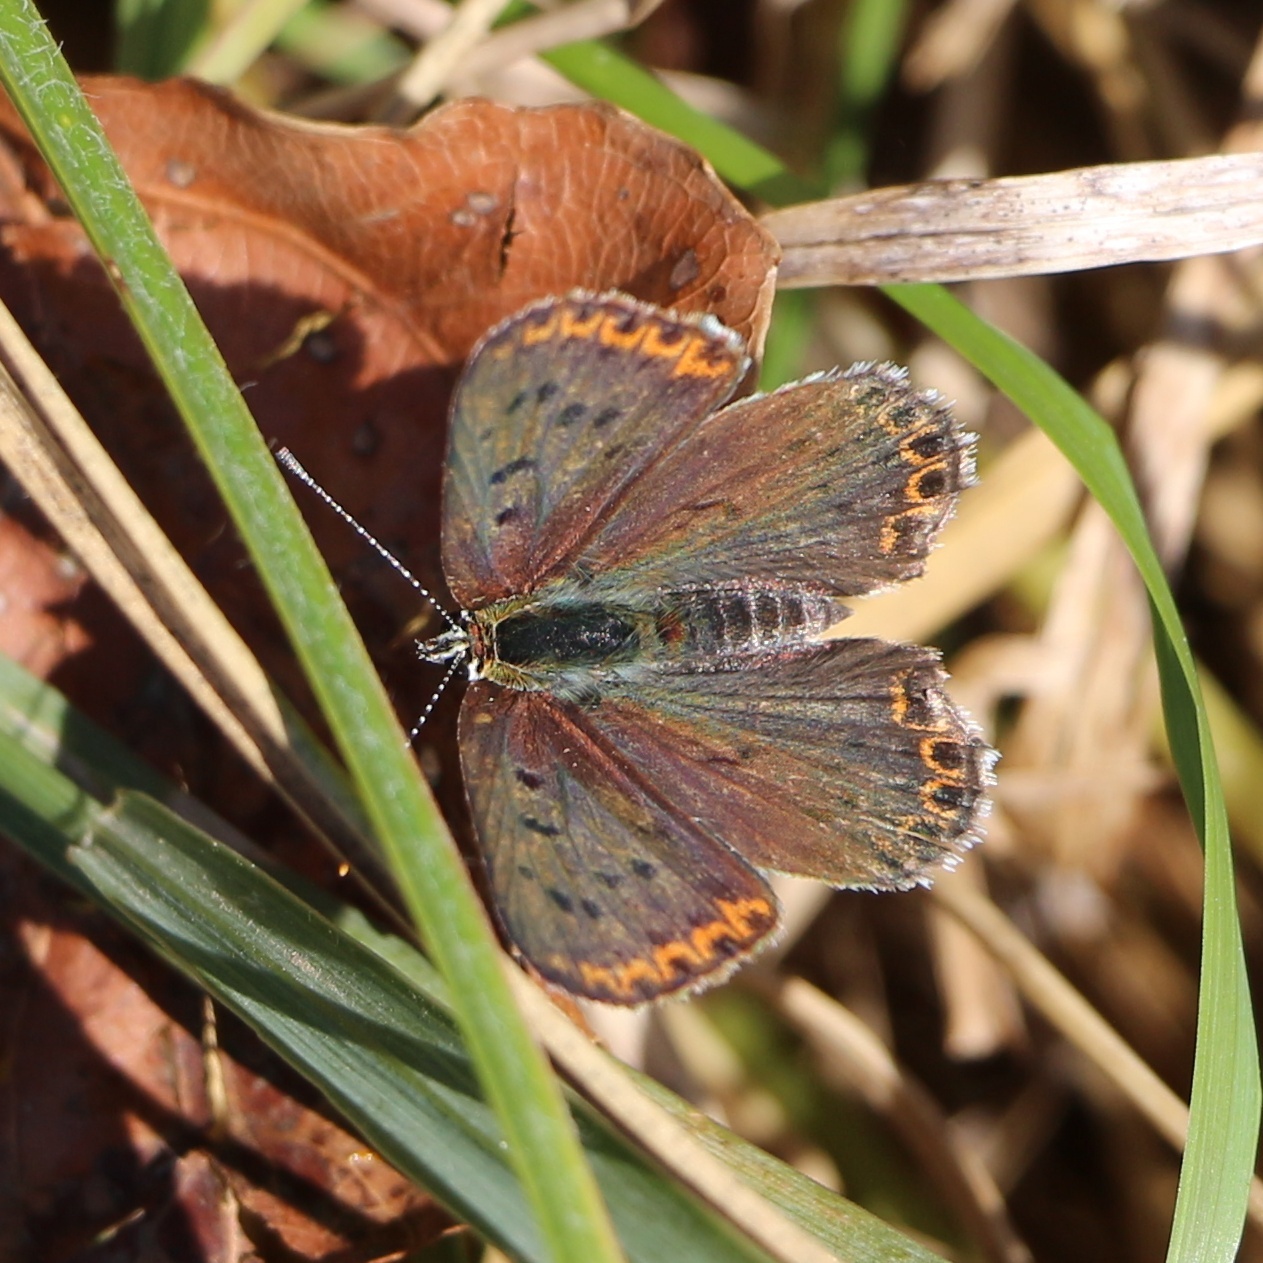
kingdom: Animalia
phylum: Arthropoda
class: Insecta
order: Lepidoptera
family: Lycaenidae
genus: Loweia
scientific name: Loweia tityrus
